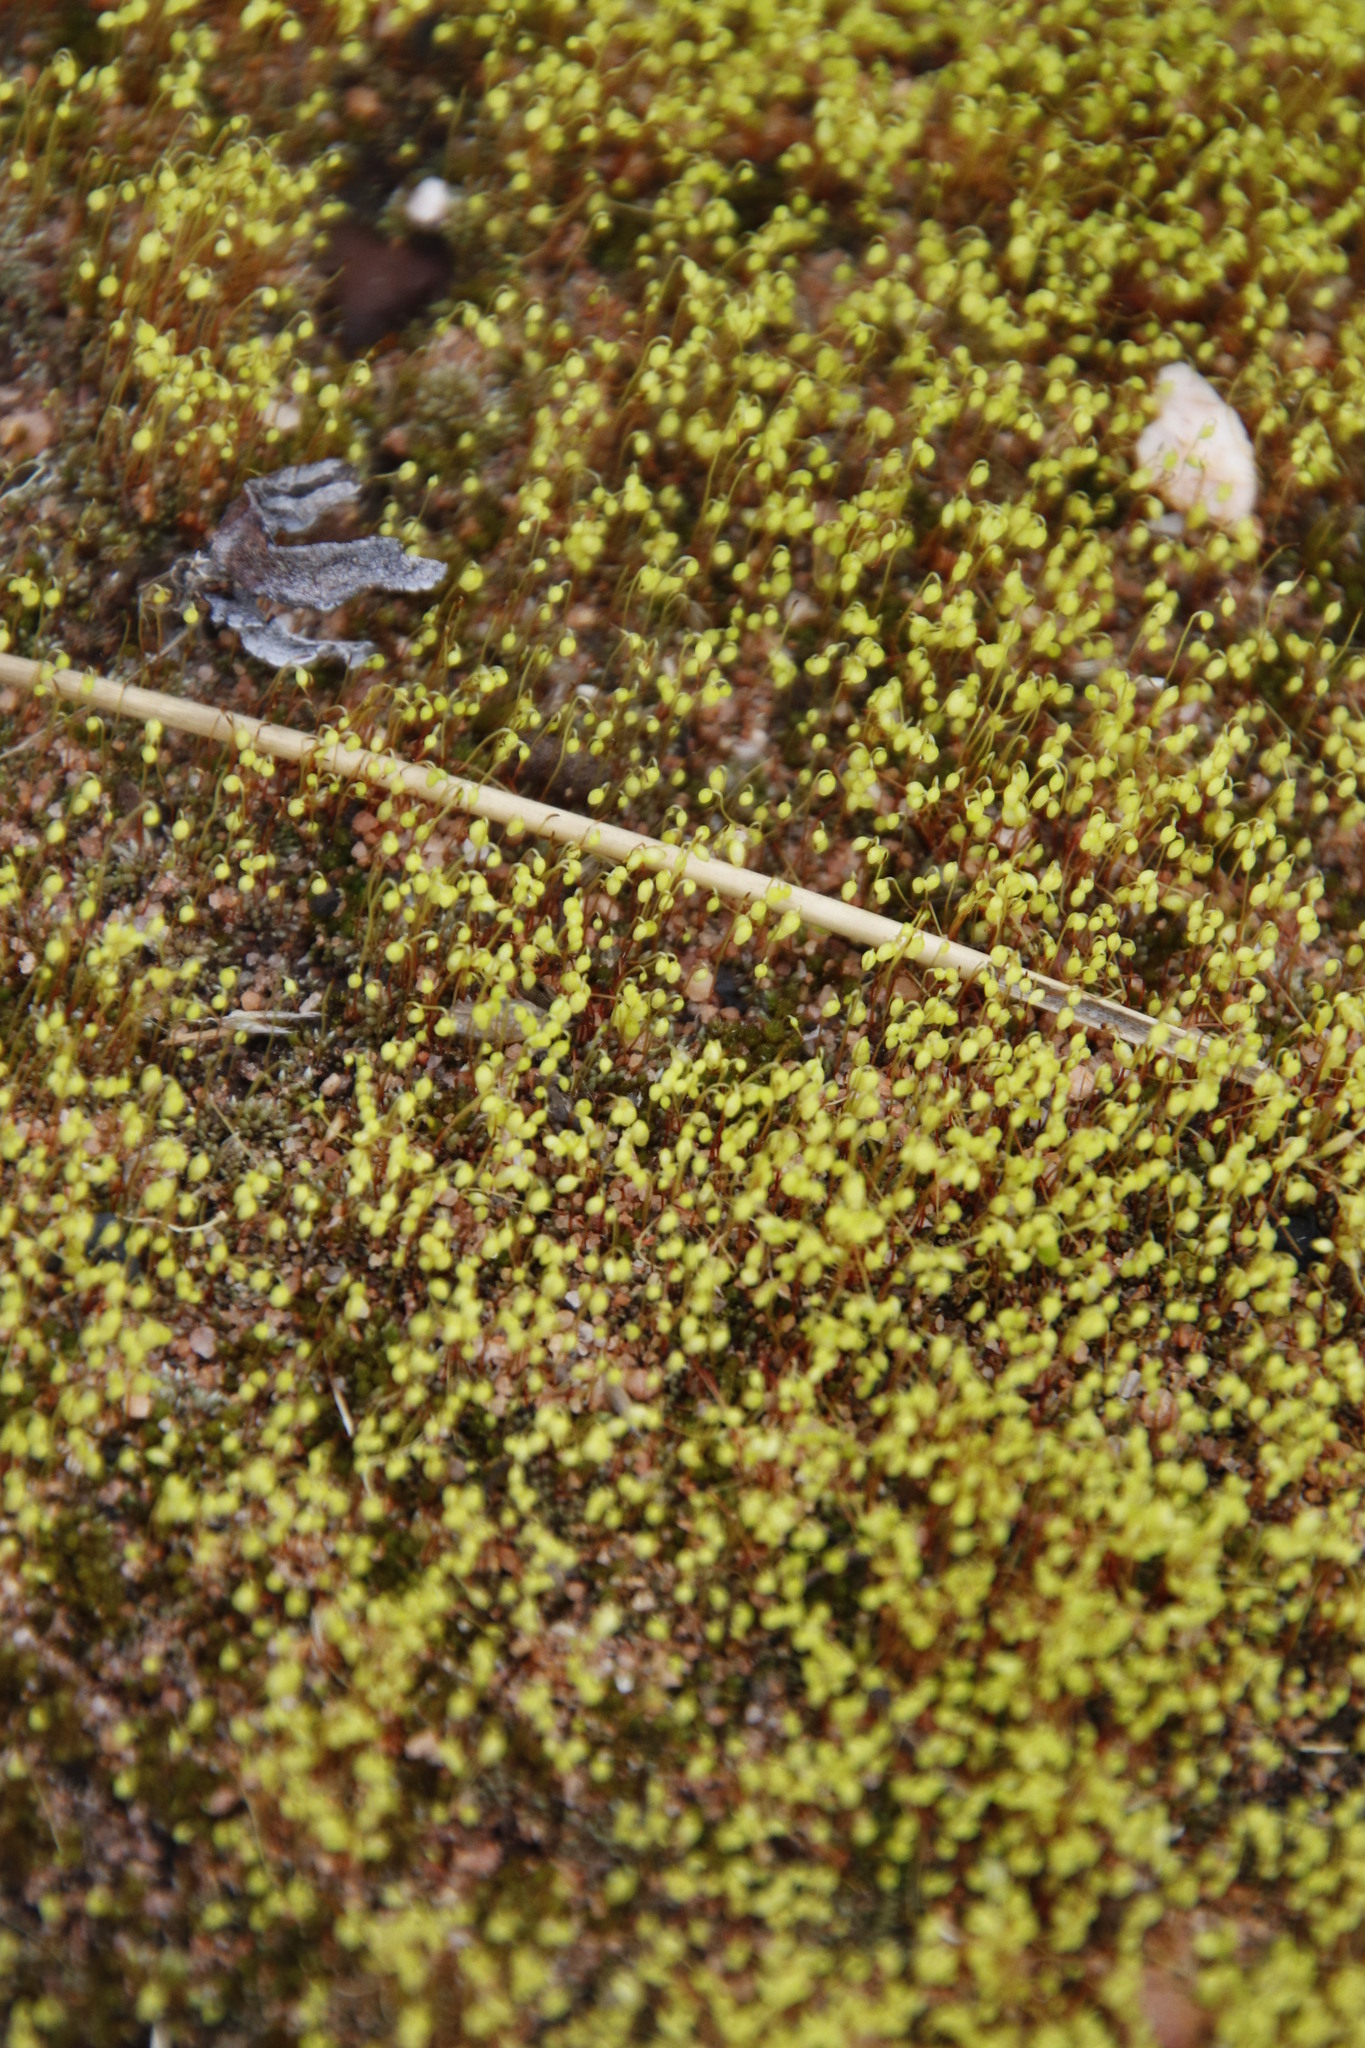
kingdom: Plantae
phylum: Bryophyta
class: Bryopsida
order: Bryales
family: Bryaceae
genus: Bryum
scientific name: Bryum argenteum
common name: Silver-moss
